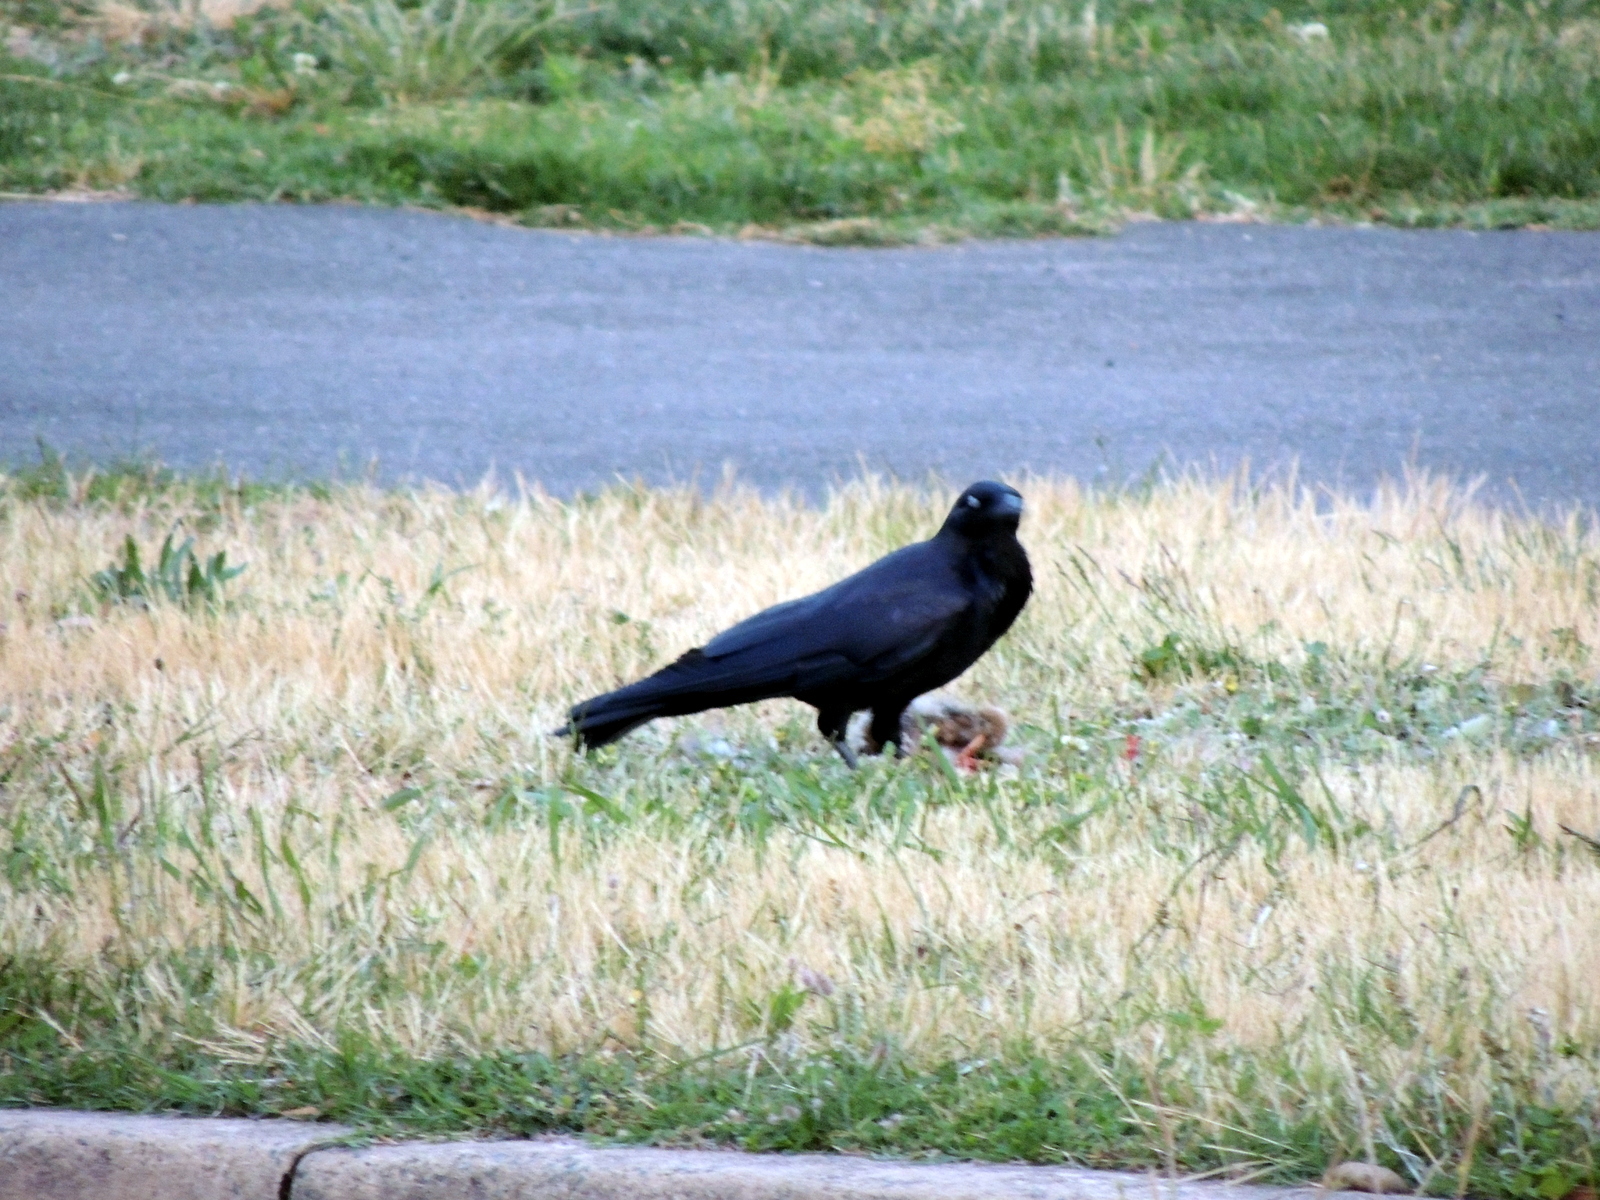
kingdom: Animalia
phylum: Chordata
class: Aves
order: Passeriformes
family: Corvidae
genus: Corvus
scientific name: Corvus coronoides
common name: Australian raven
